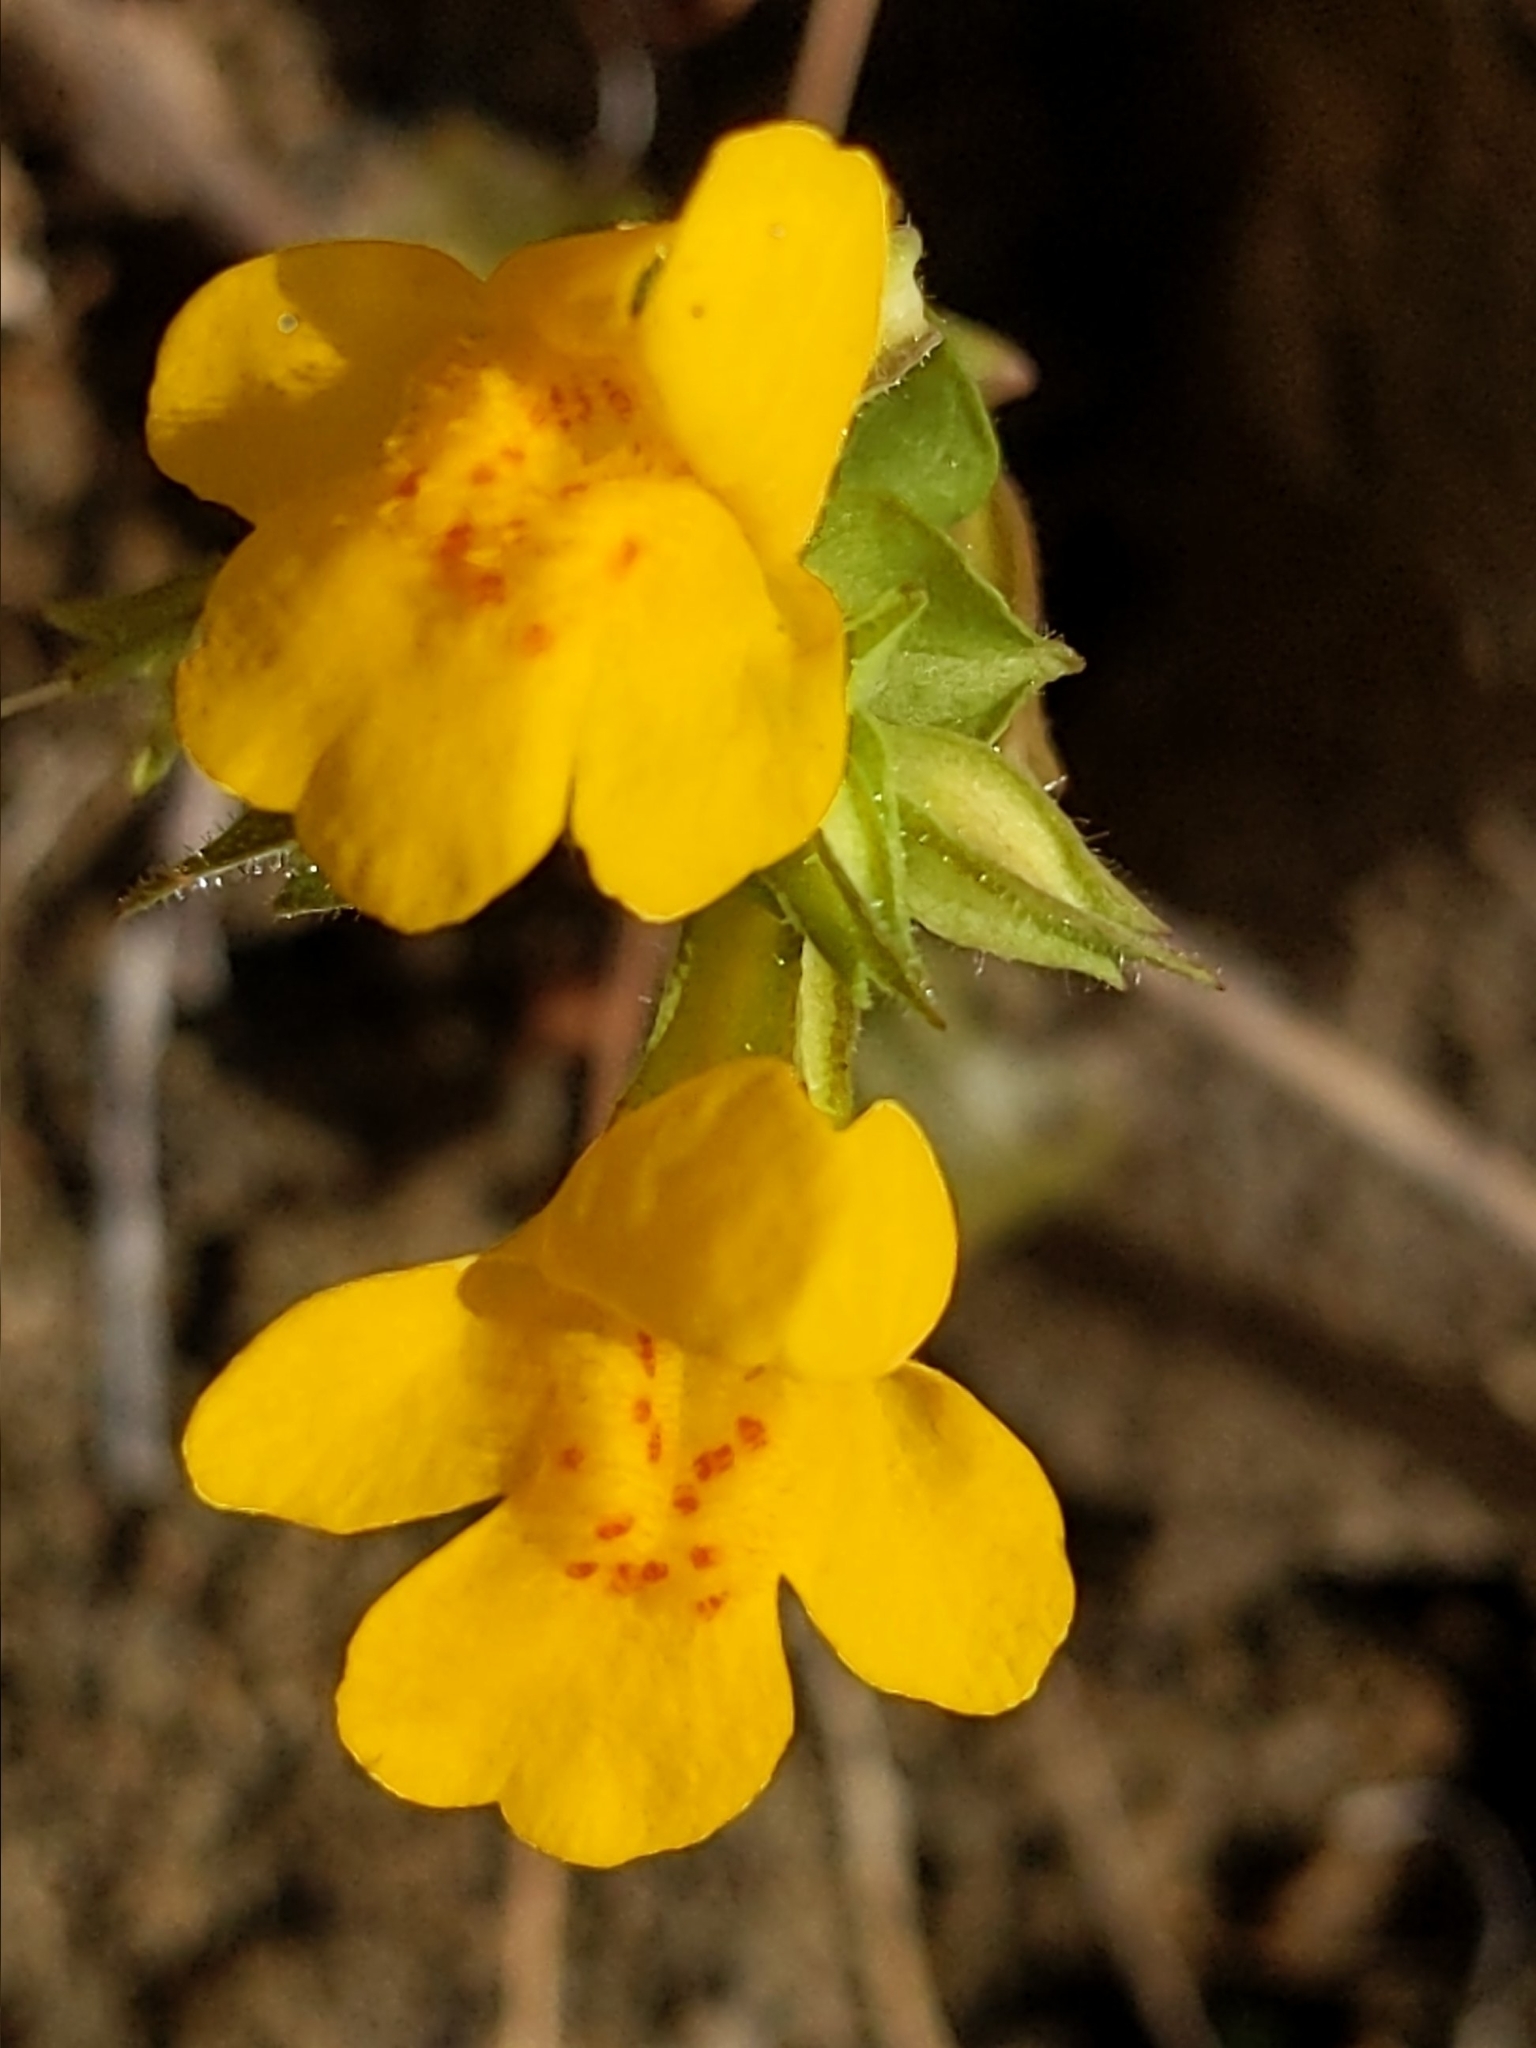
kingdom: Plantae
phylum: Tracheophyta
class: Magnoliopsida
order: Lamiales
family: Phrymaceae
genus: Erythranthe
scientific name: Erythranthe guttata
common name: Monkeyflower
